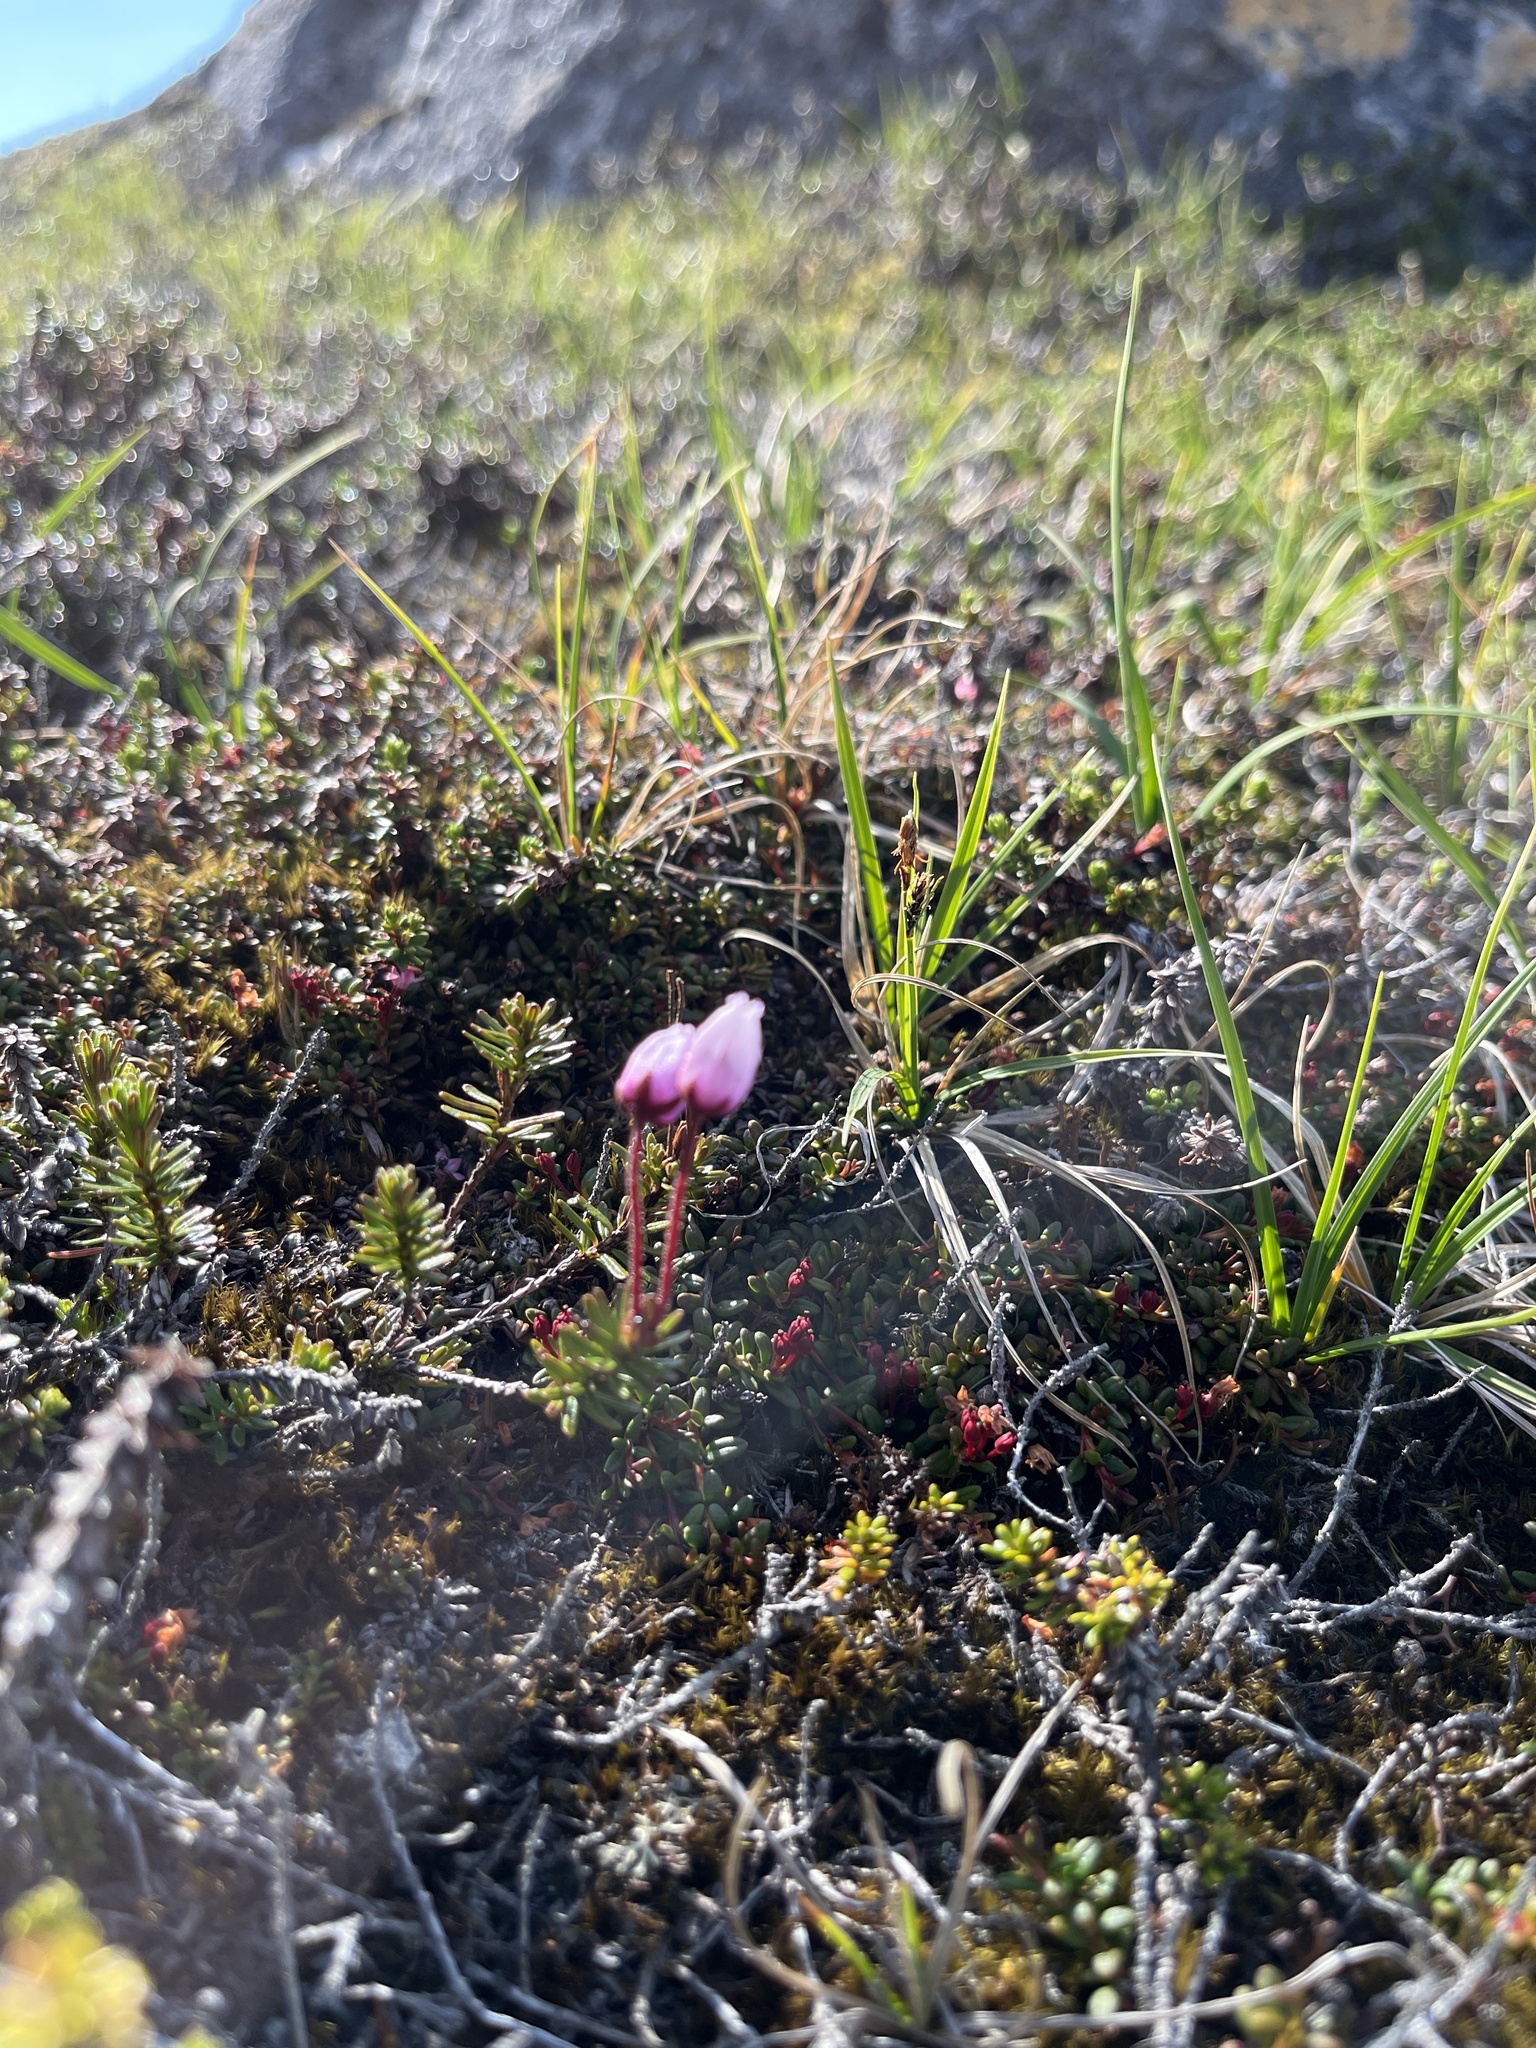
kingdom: Plantae
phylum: Tracheophyta
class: Magnoliopsida
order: Ericales
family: Ericaceae
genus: Phyllodoce
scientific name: Phyllodoce caerulea
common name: Blue heath
